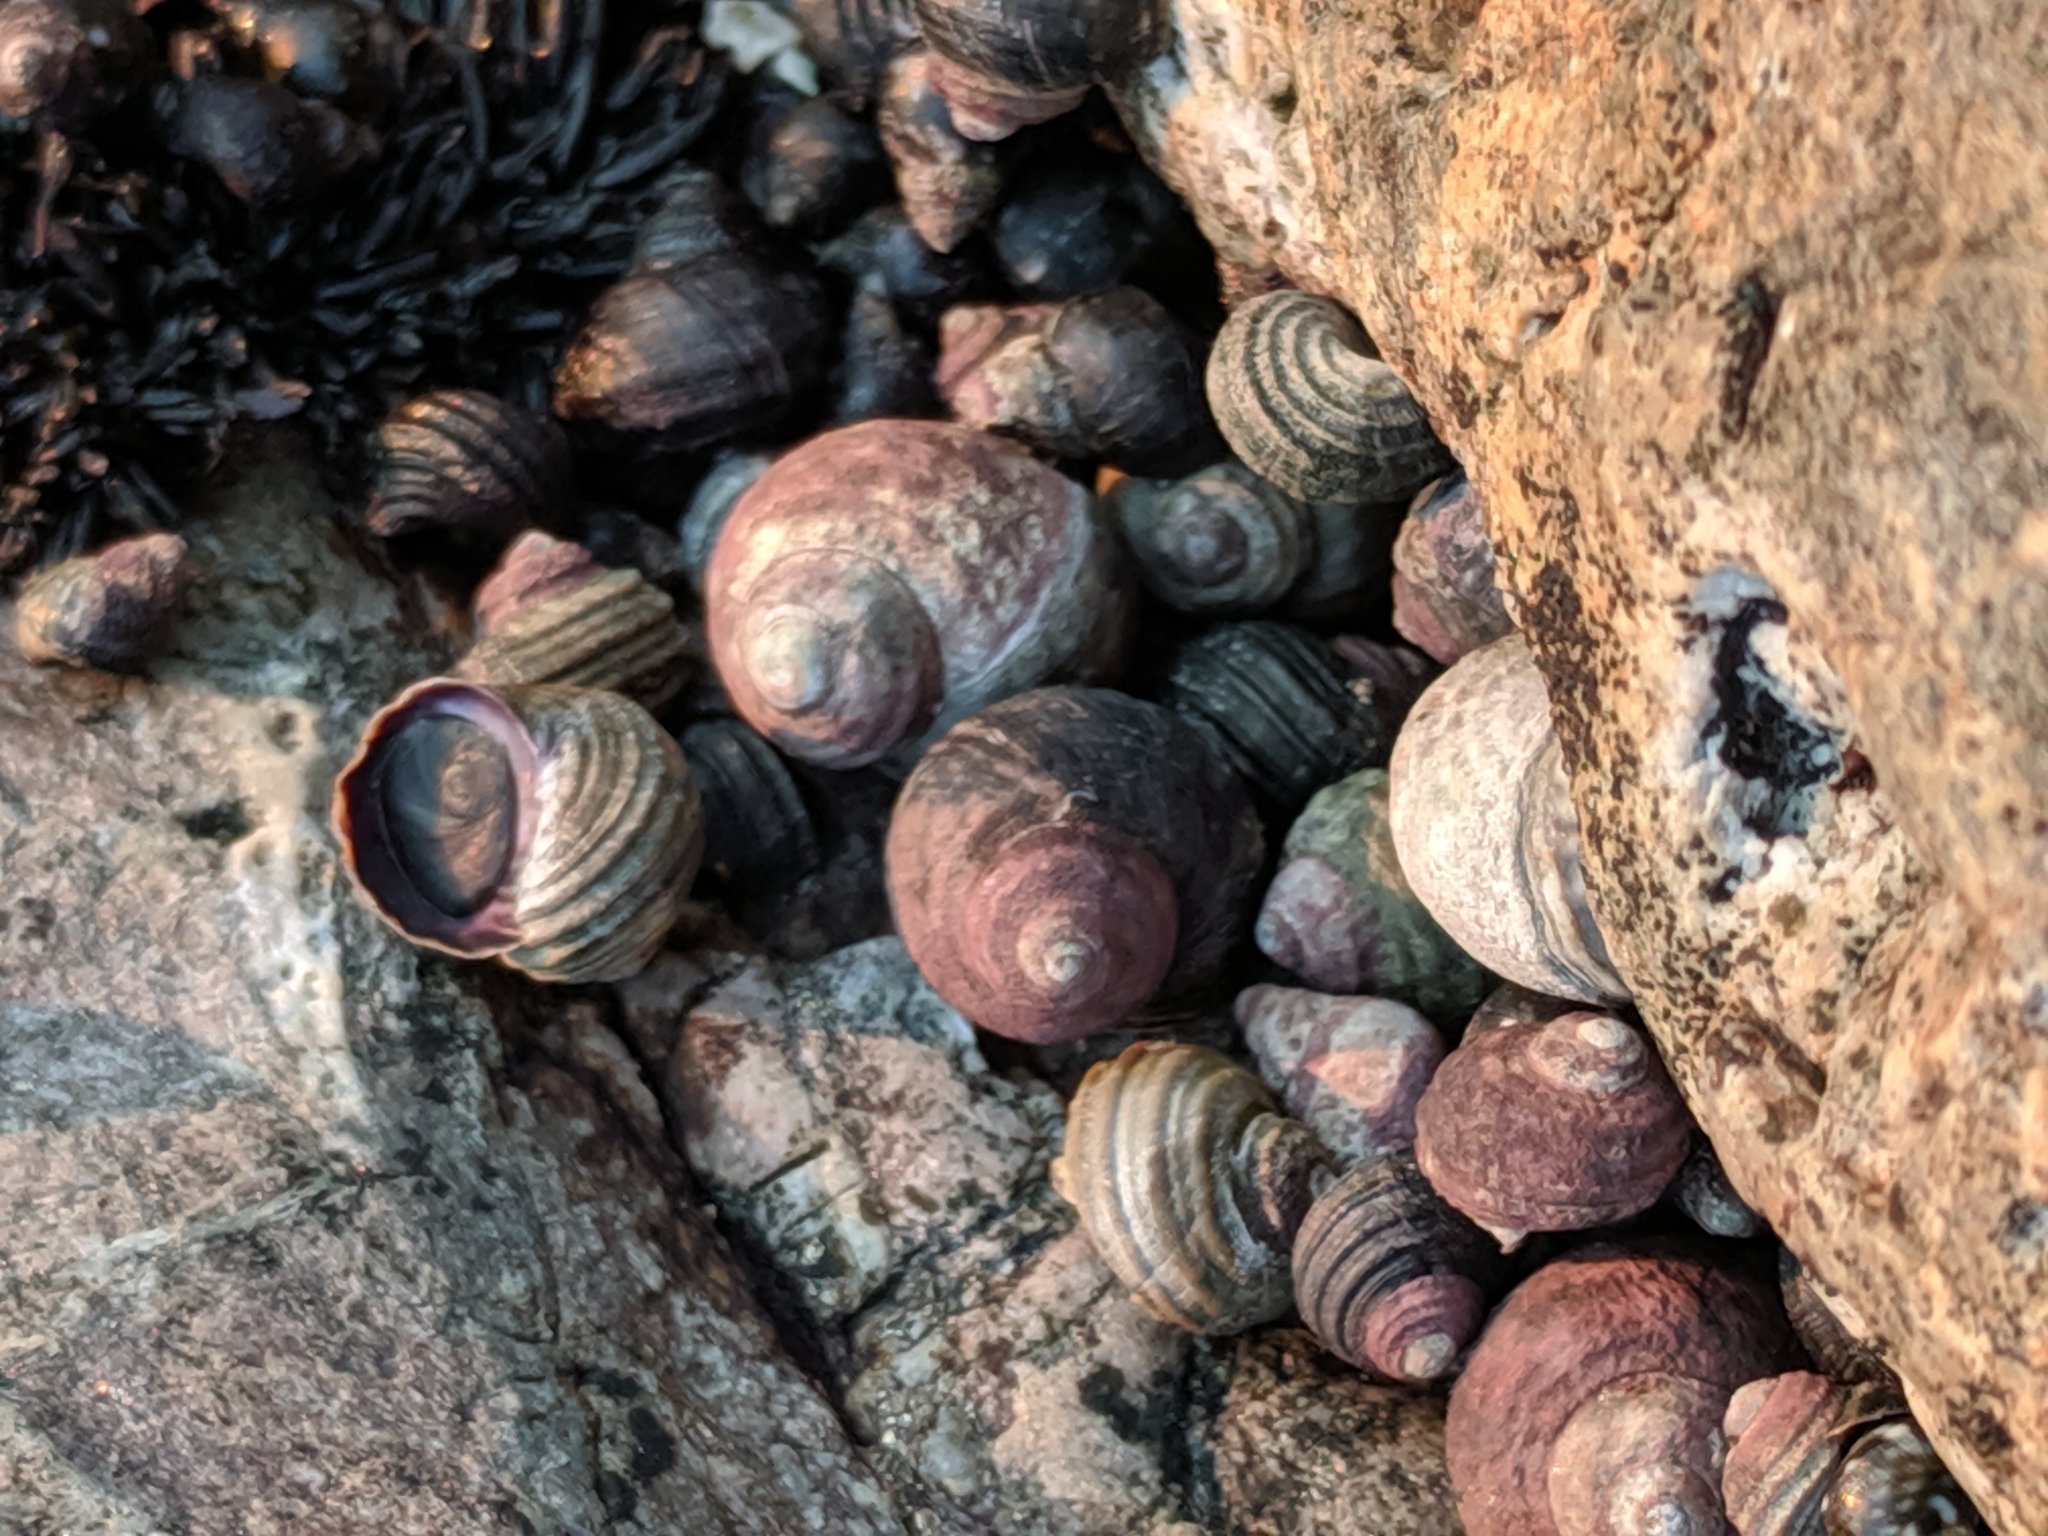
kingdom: Animalia
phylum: Mollusca
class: Gastropoda
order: Littorinimorpha
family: Littorinidae
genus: Littorina
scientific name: Littorina sitkana
